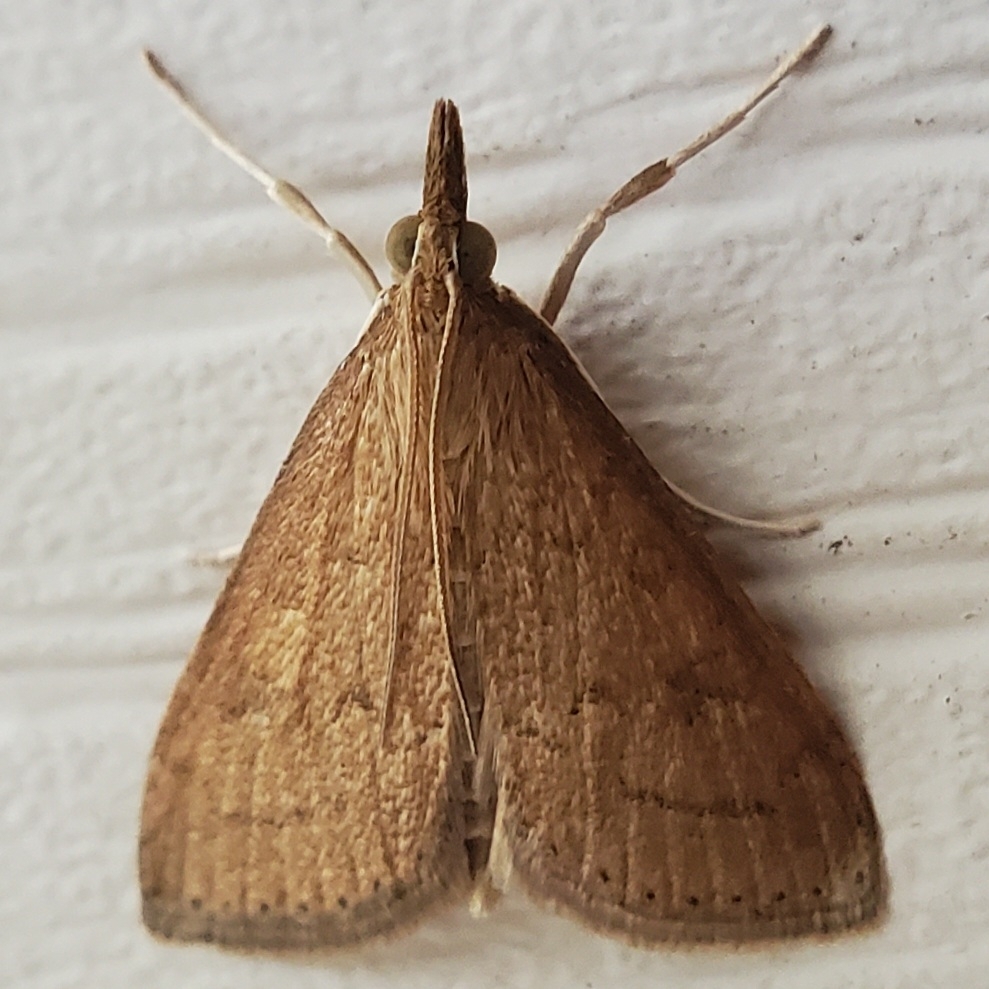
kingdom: Animalia
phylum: Arthropoda
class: Insecta
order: Lepidoptera
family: Crambidae
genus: Udea
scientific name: Udea rubigalis
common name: Celery leaftier moth
